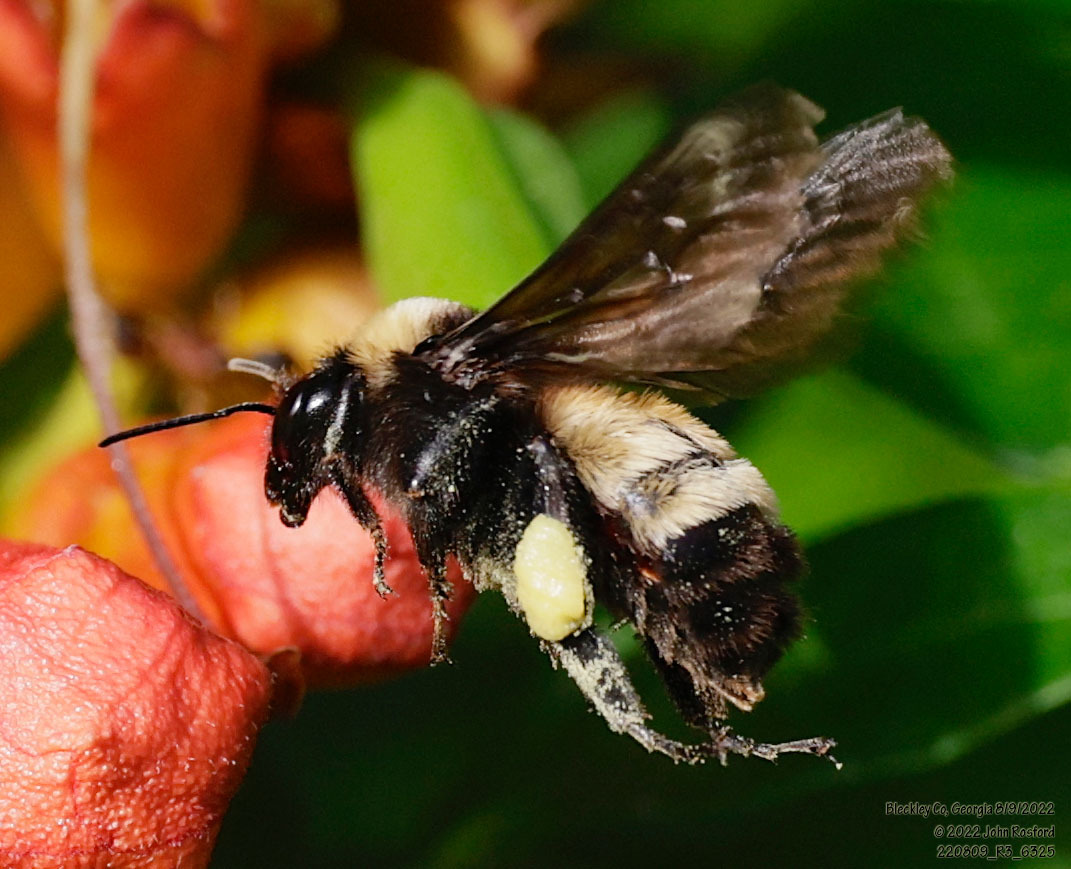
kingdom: Animalia
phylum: Arthropoda
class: Insecta
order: Hymenoptera
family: Apidae
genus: Bombus
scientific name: Bombus pensylvanicus
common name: Bumble bee
